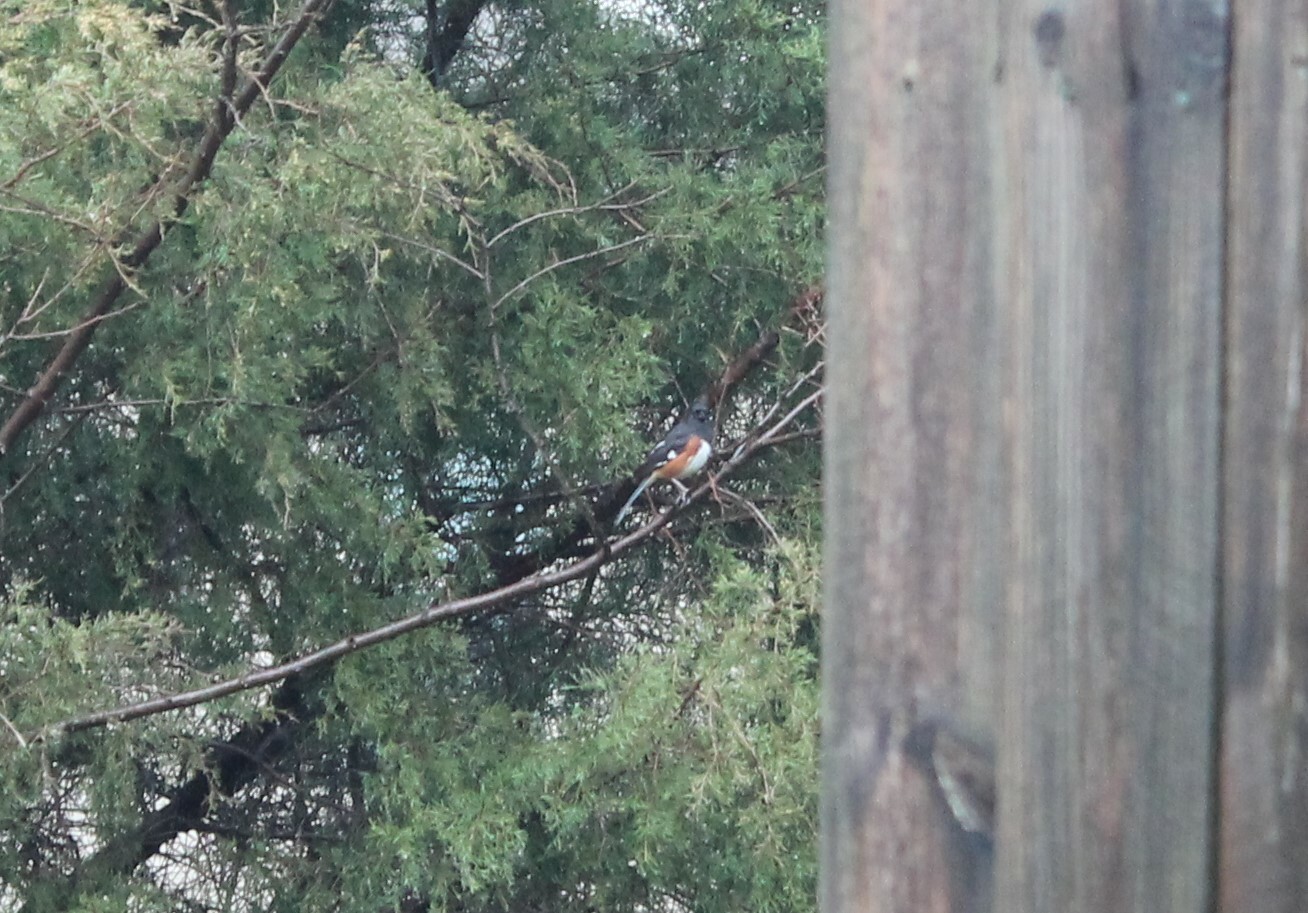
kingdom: Animalia
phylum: Chordata
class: Aves
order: Passeriformes
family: Passerellidae
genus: Pipilo
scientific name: Pipilo erythrophthalmus
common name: Eastern towhee
